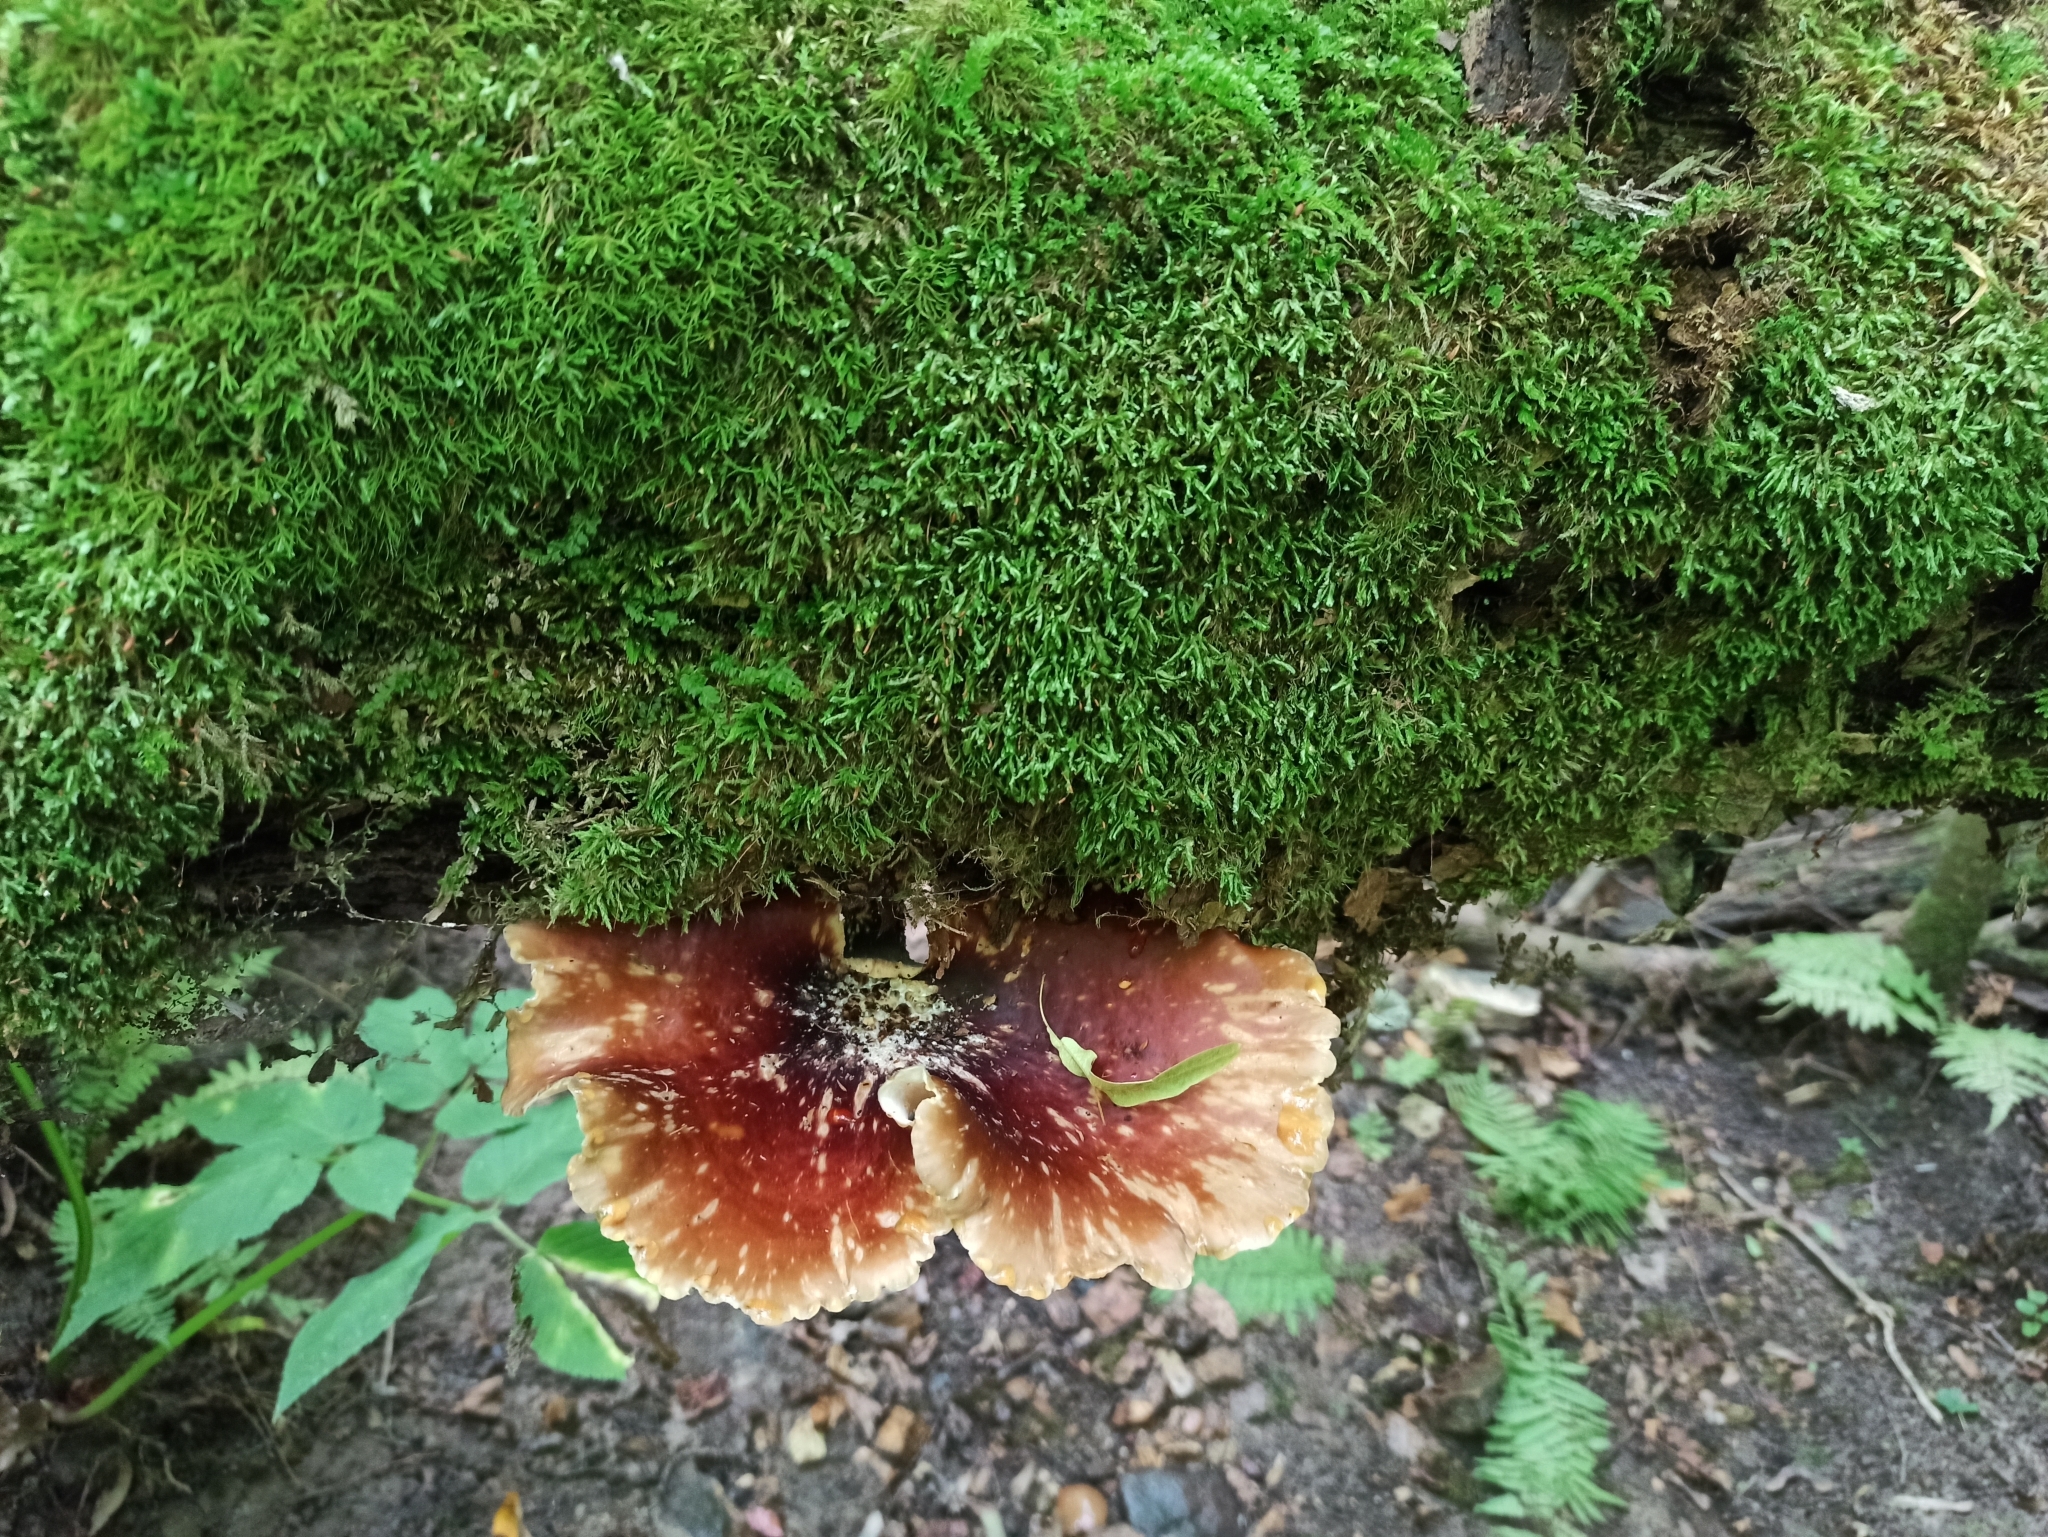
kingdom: Fungi
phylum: Basidiomycota
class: Agaricomycetes
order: Polyporales
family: Polyporaceae
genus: Picipes
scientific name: Picipes badius
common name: Bay polypore
